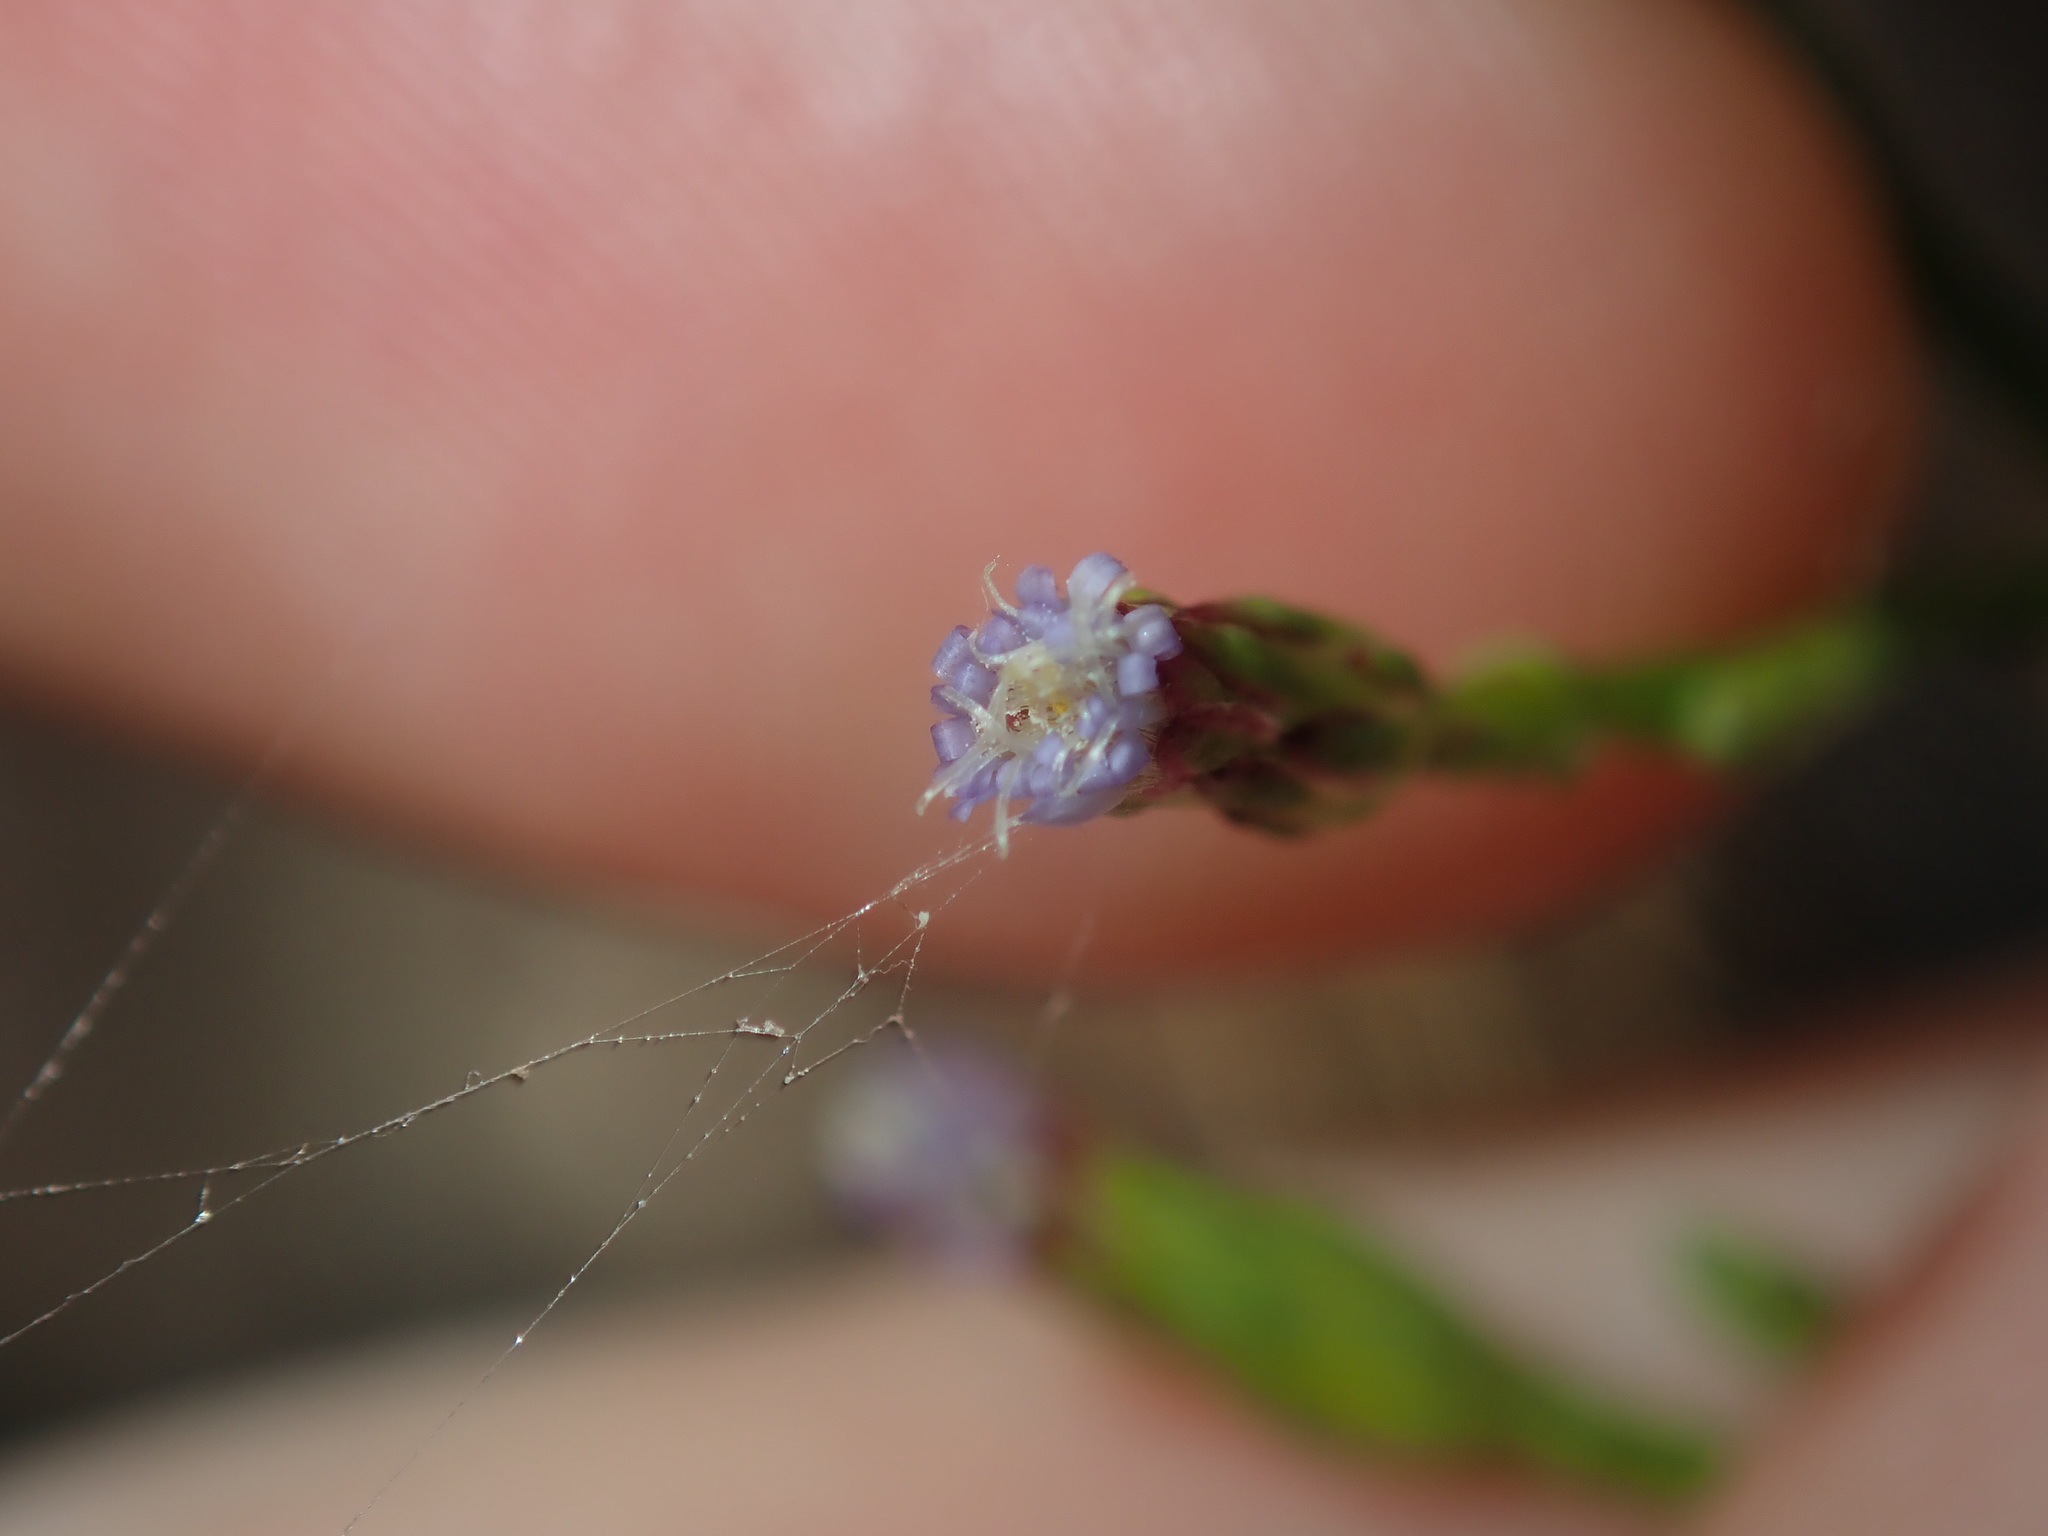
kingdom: Plantae
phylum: Tracheophyta
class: Magnoliopsida
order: Asterales
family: Asteraceae
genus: Symphyotrichum
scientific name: Symphyotrichum subulatum
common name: Annual saltmarsh aster
